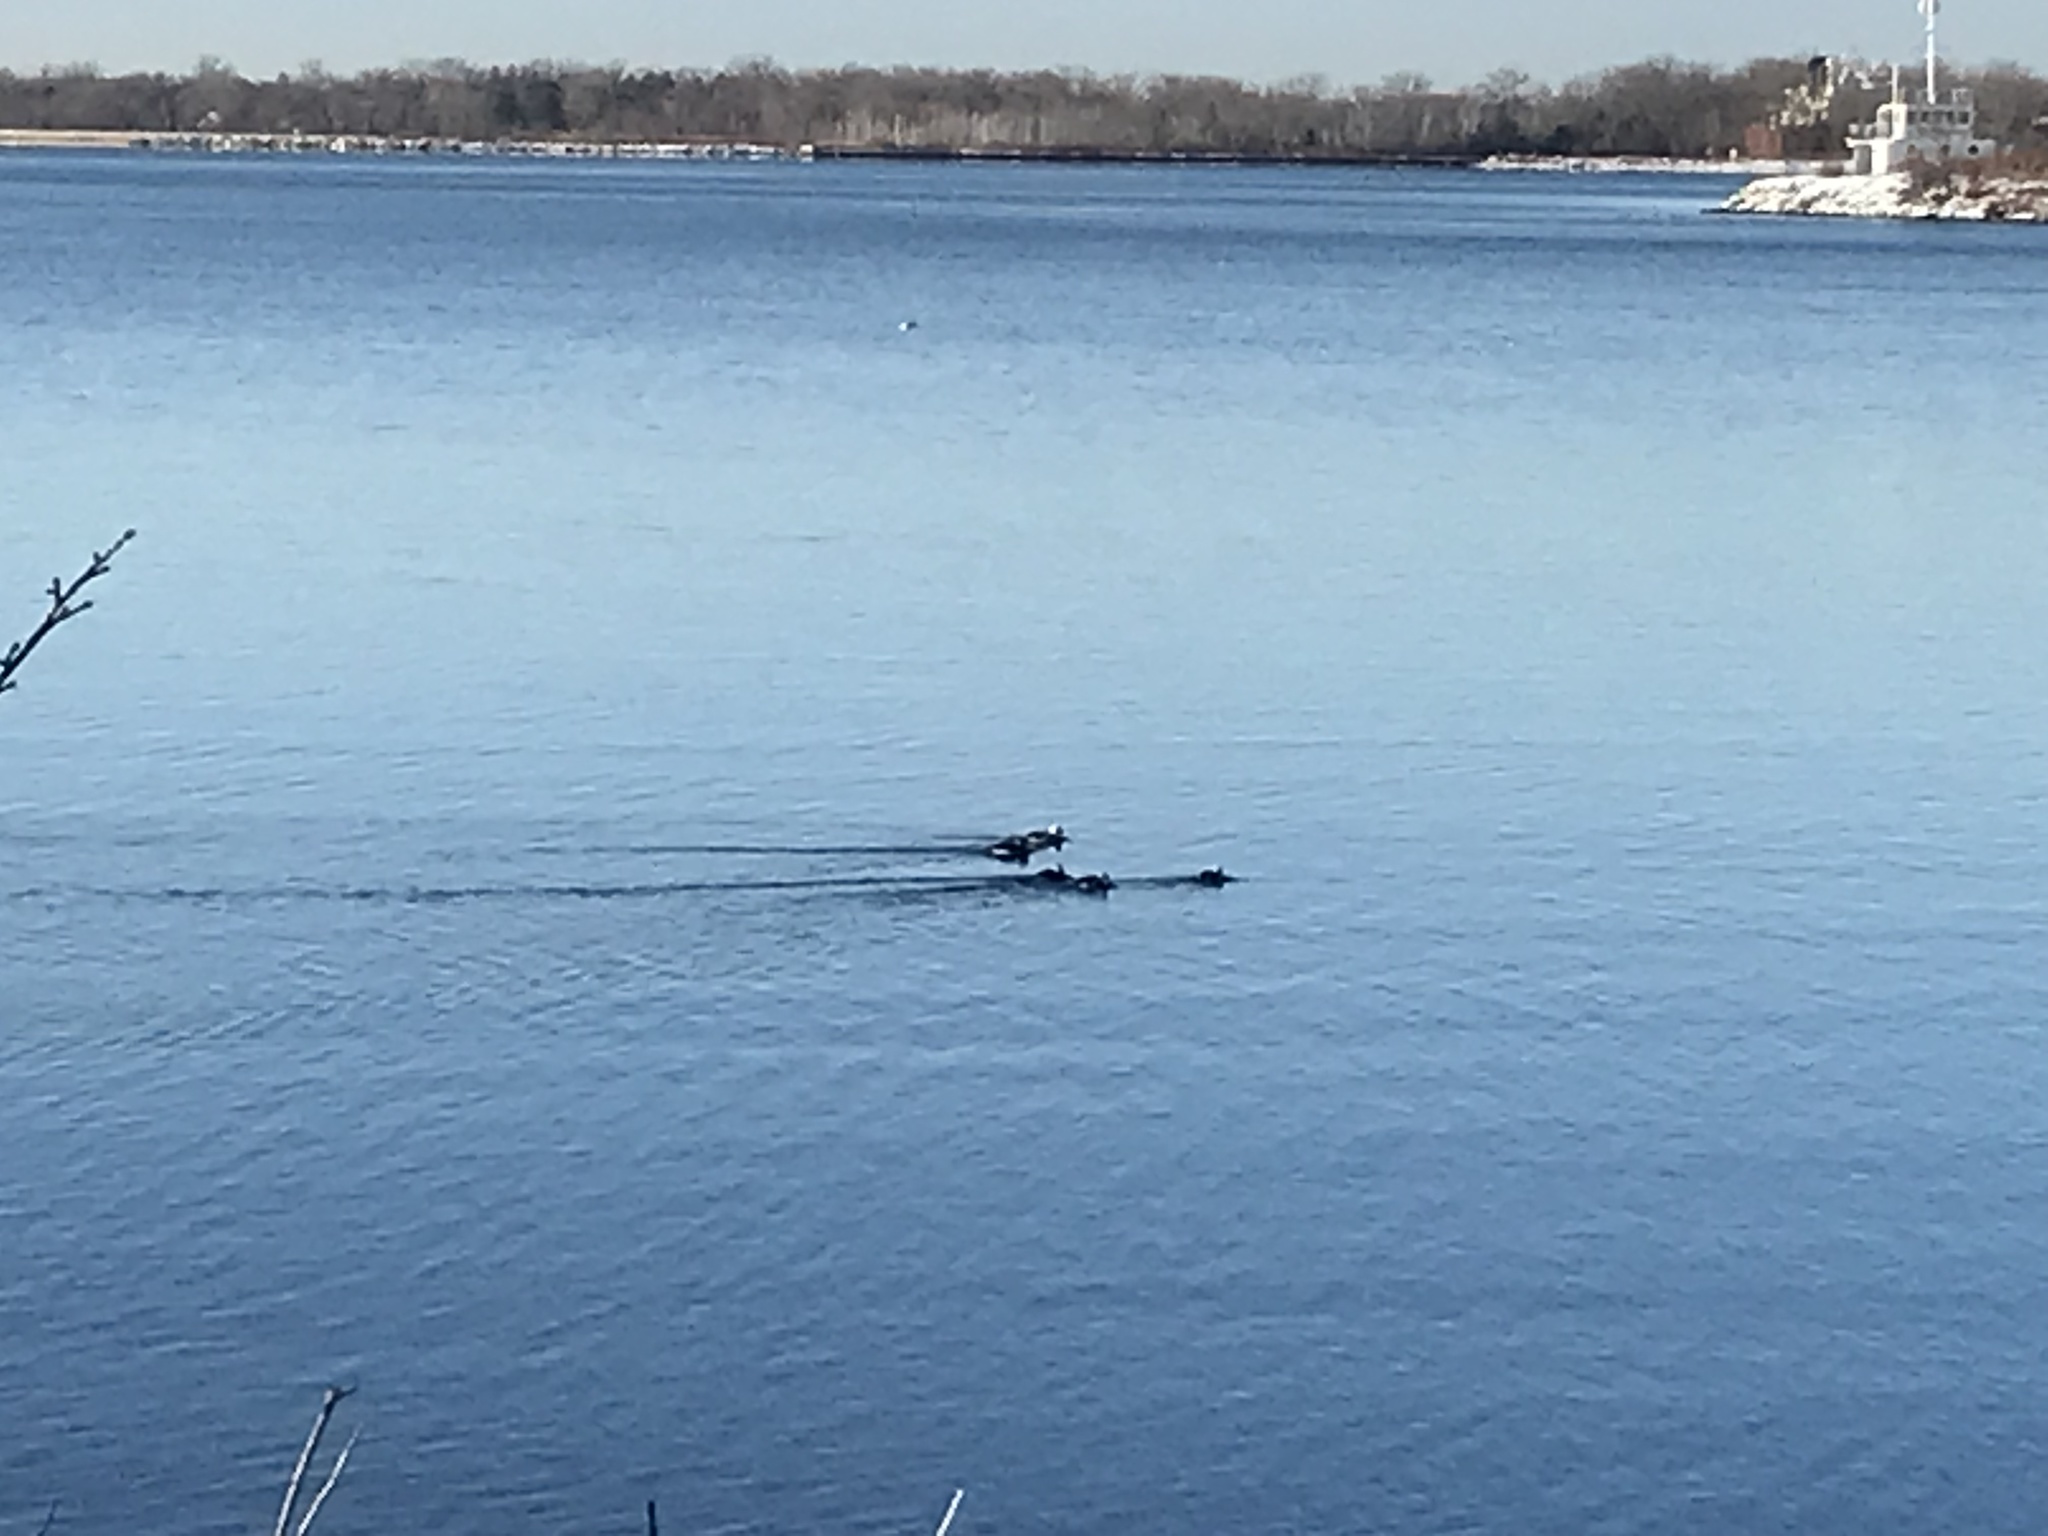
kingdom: Animalia
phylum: Chordata
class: Aves
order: Anseriformes
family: Anatidae
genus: Clangula
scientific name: Clangula hyemalis
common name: Long-tailed duck
